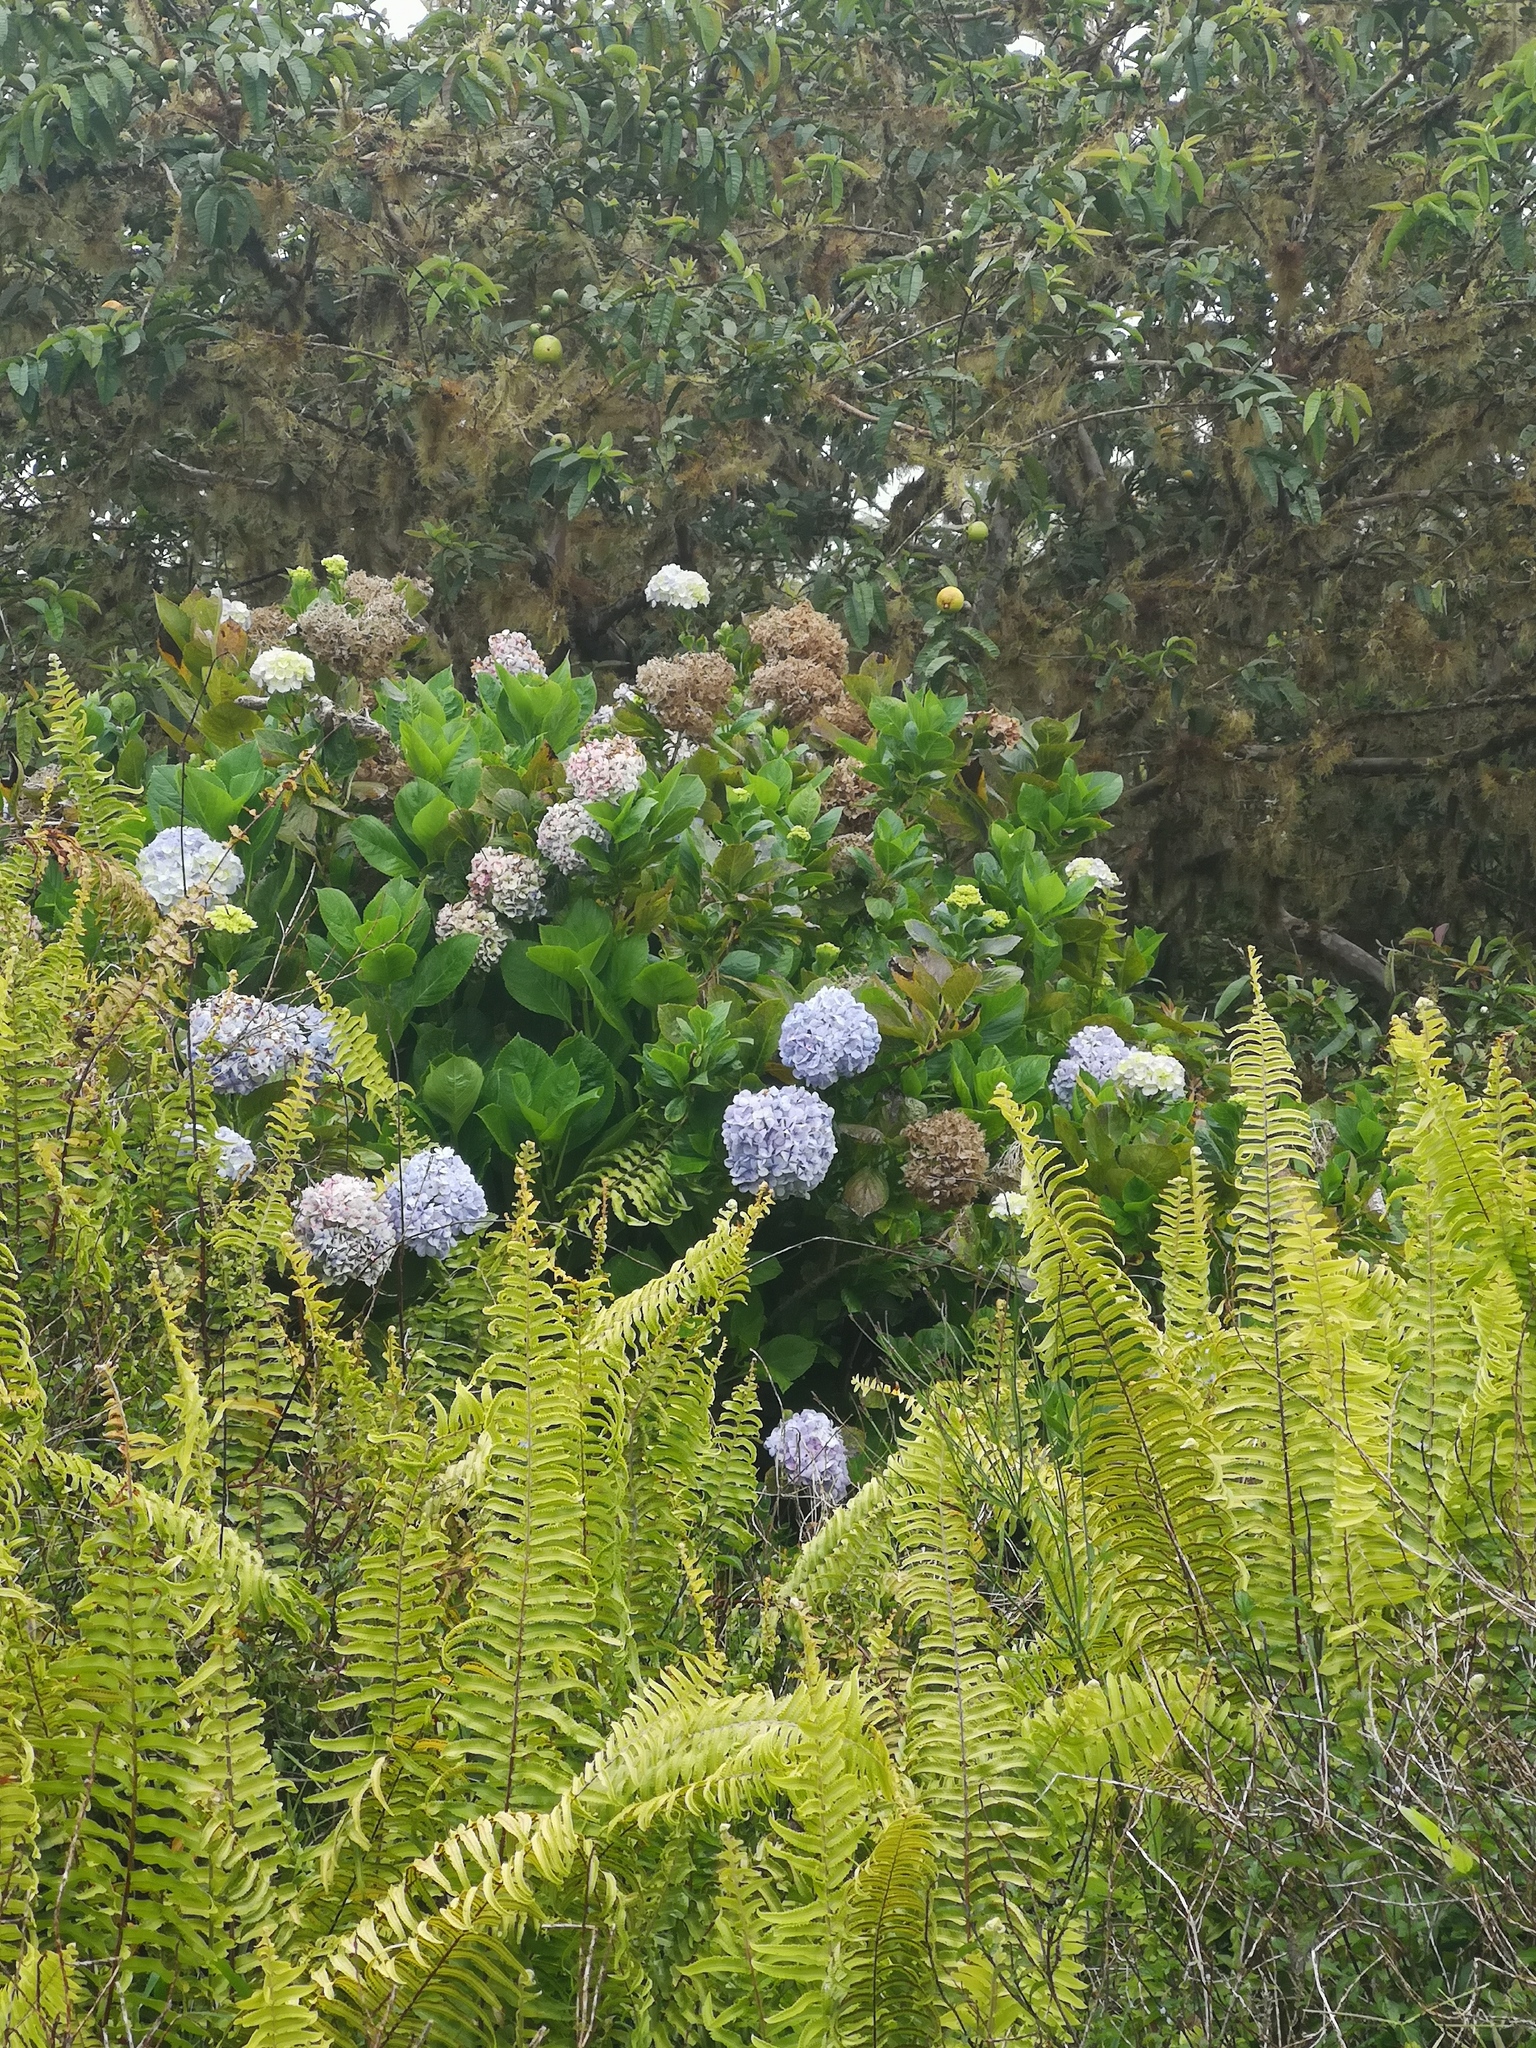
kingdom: Plantae
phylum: Tracheophyta
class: Magnoliopsida
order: Cornales
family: Hydrangeaceae
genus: Hydrangea
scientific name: Hydrangea macrophylla
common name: Hydrangea
